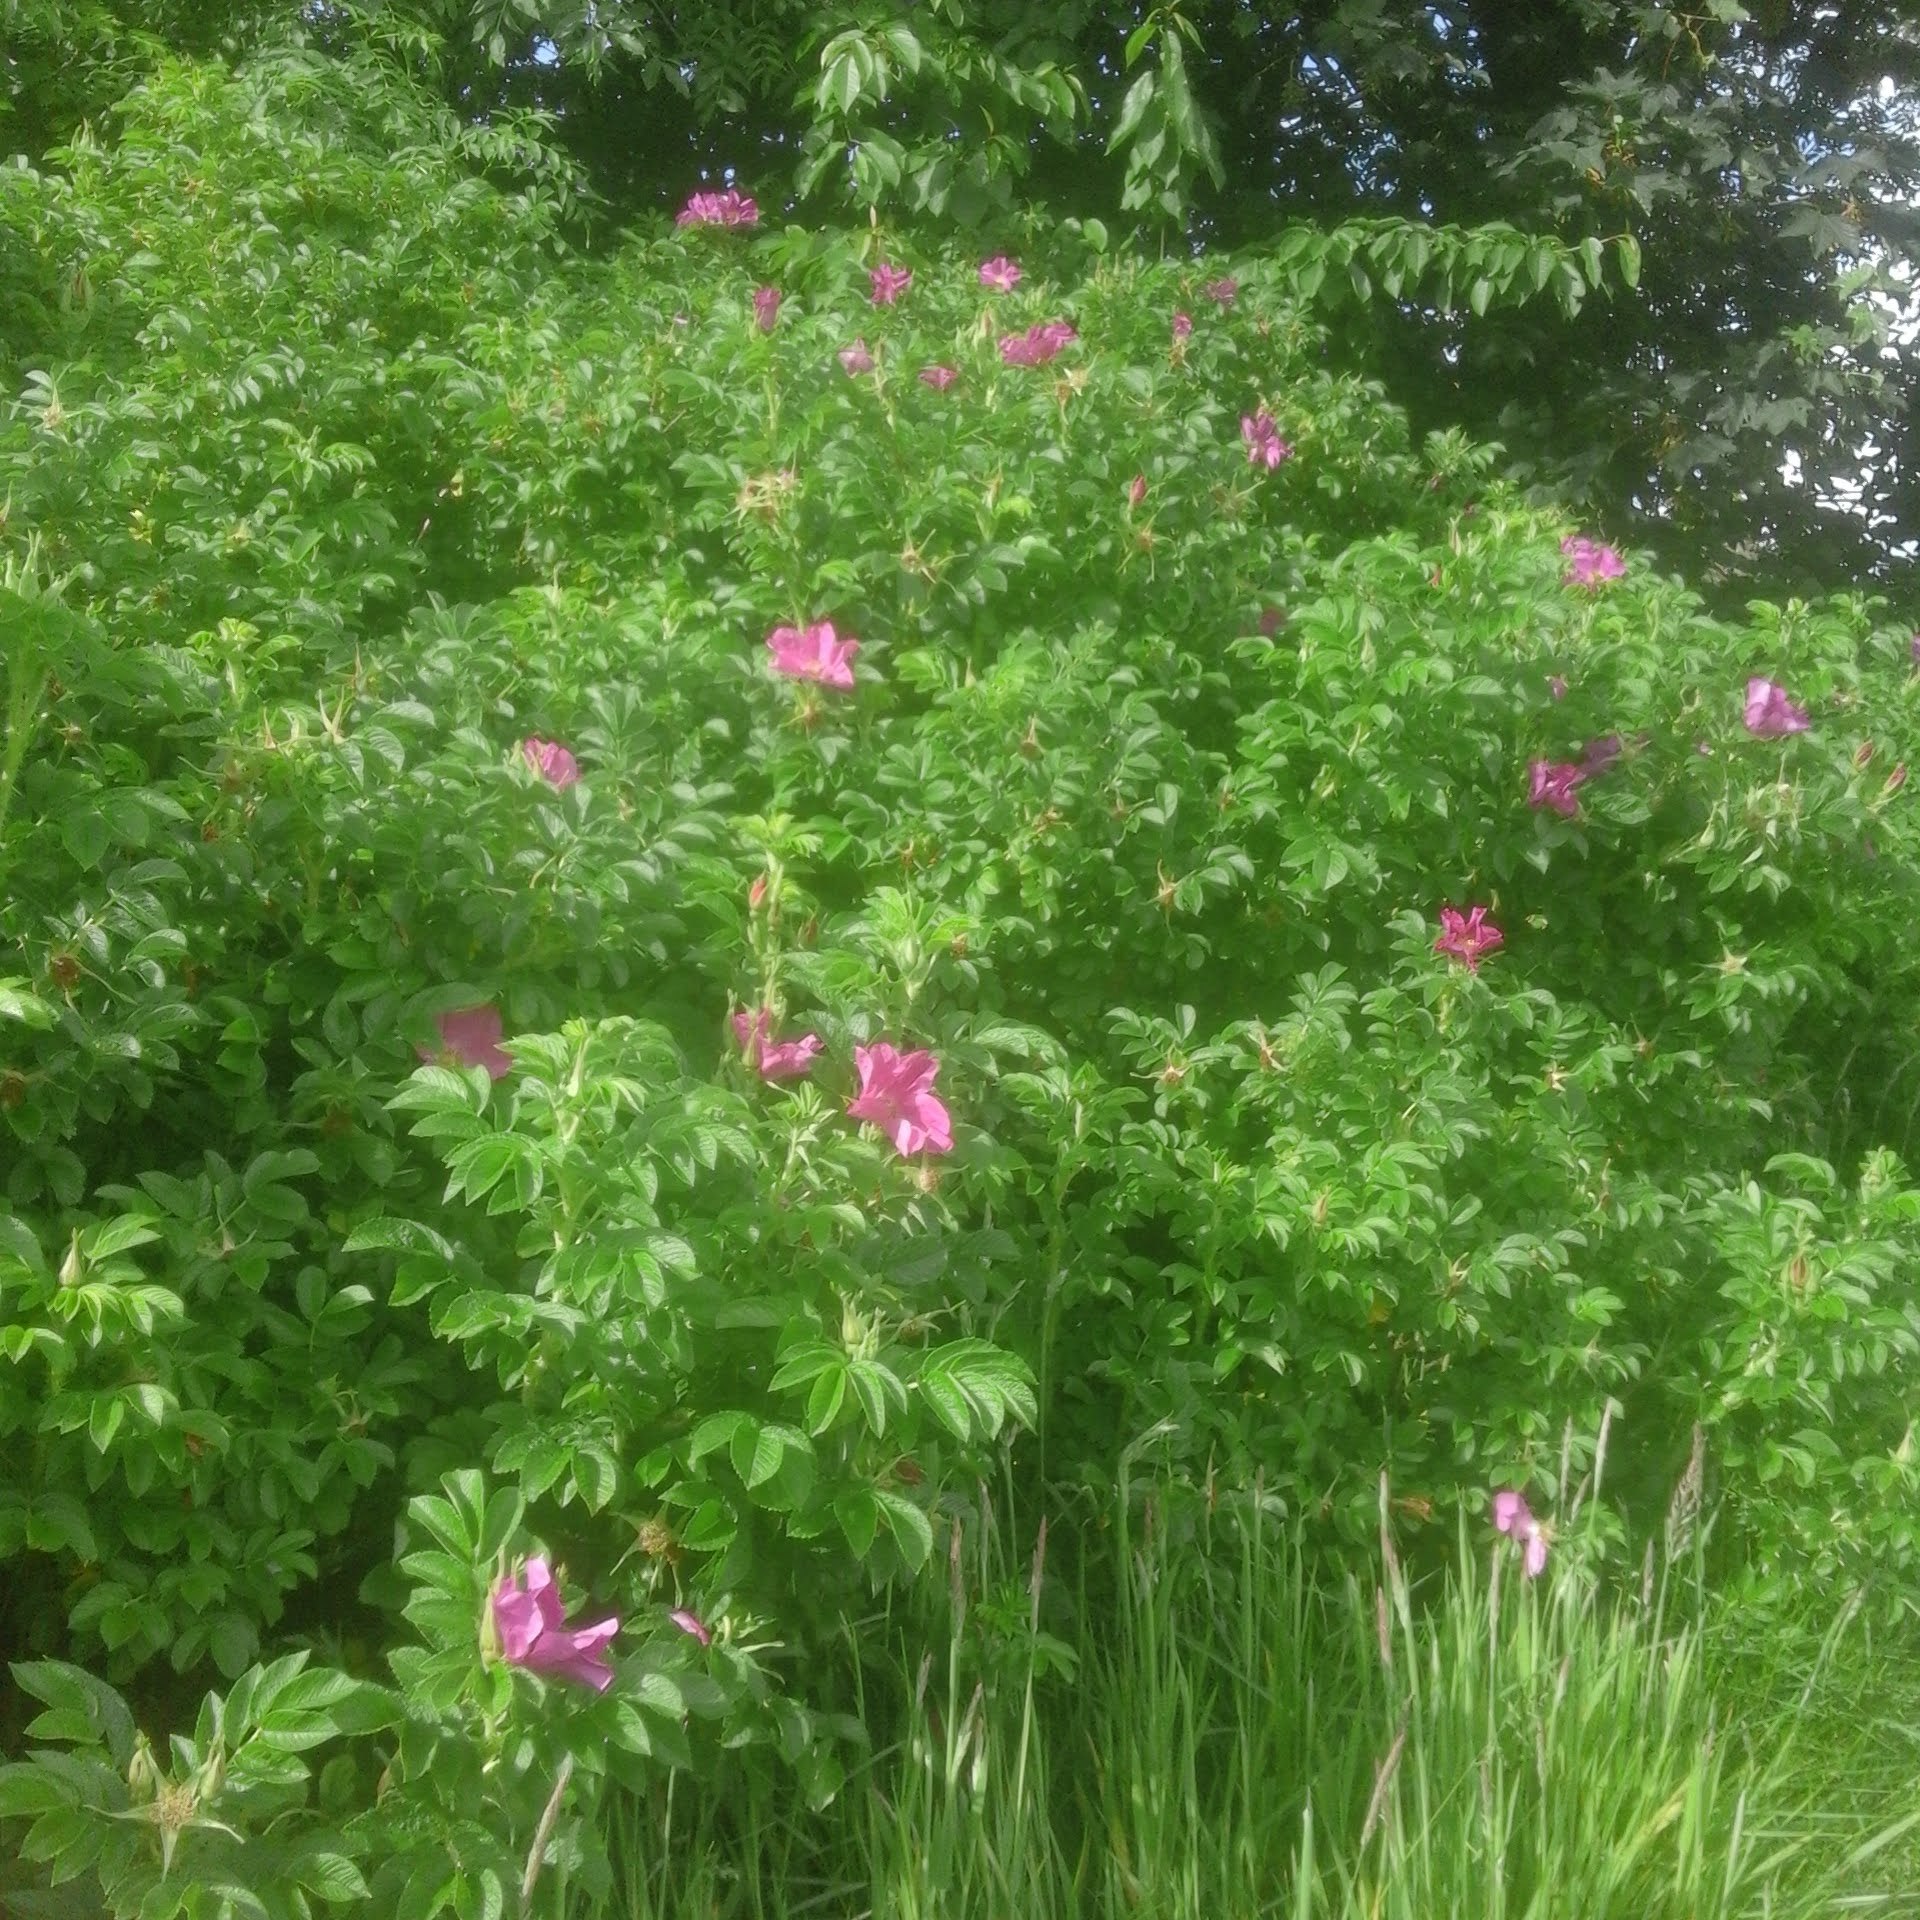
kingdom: Plantae
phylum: Tracheophyta
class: Magnoliopsida
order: Rosales
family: Rosaceae
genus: Rosa
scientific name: Rosa rugosa
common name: Japanese rose
